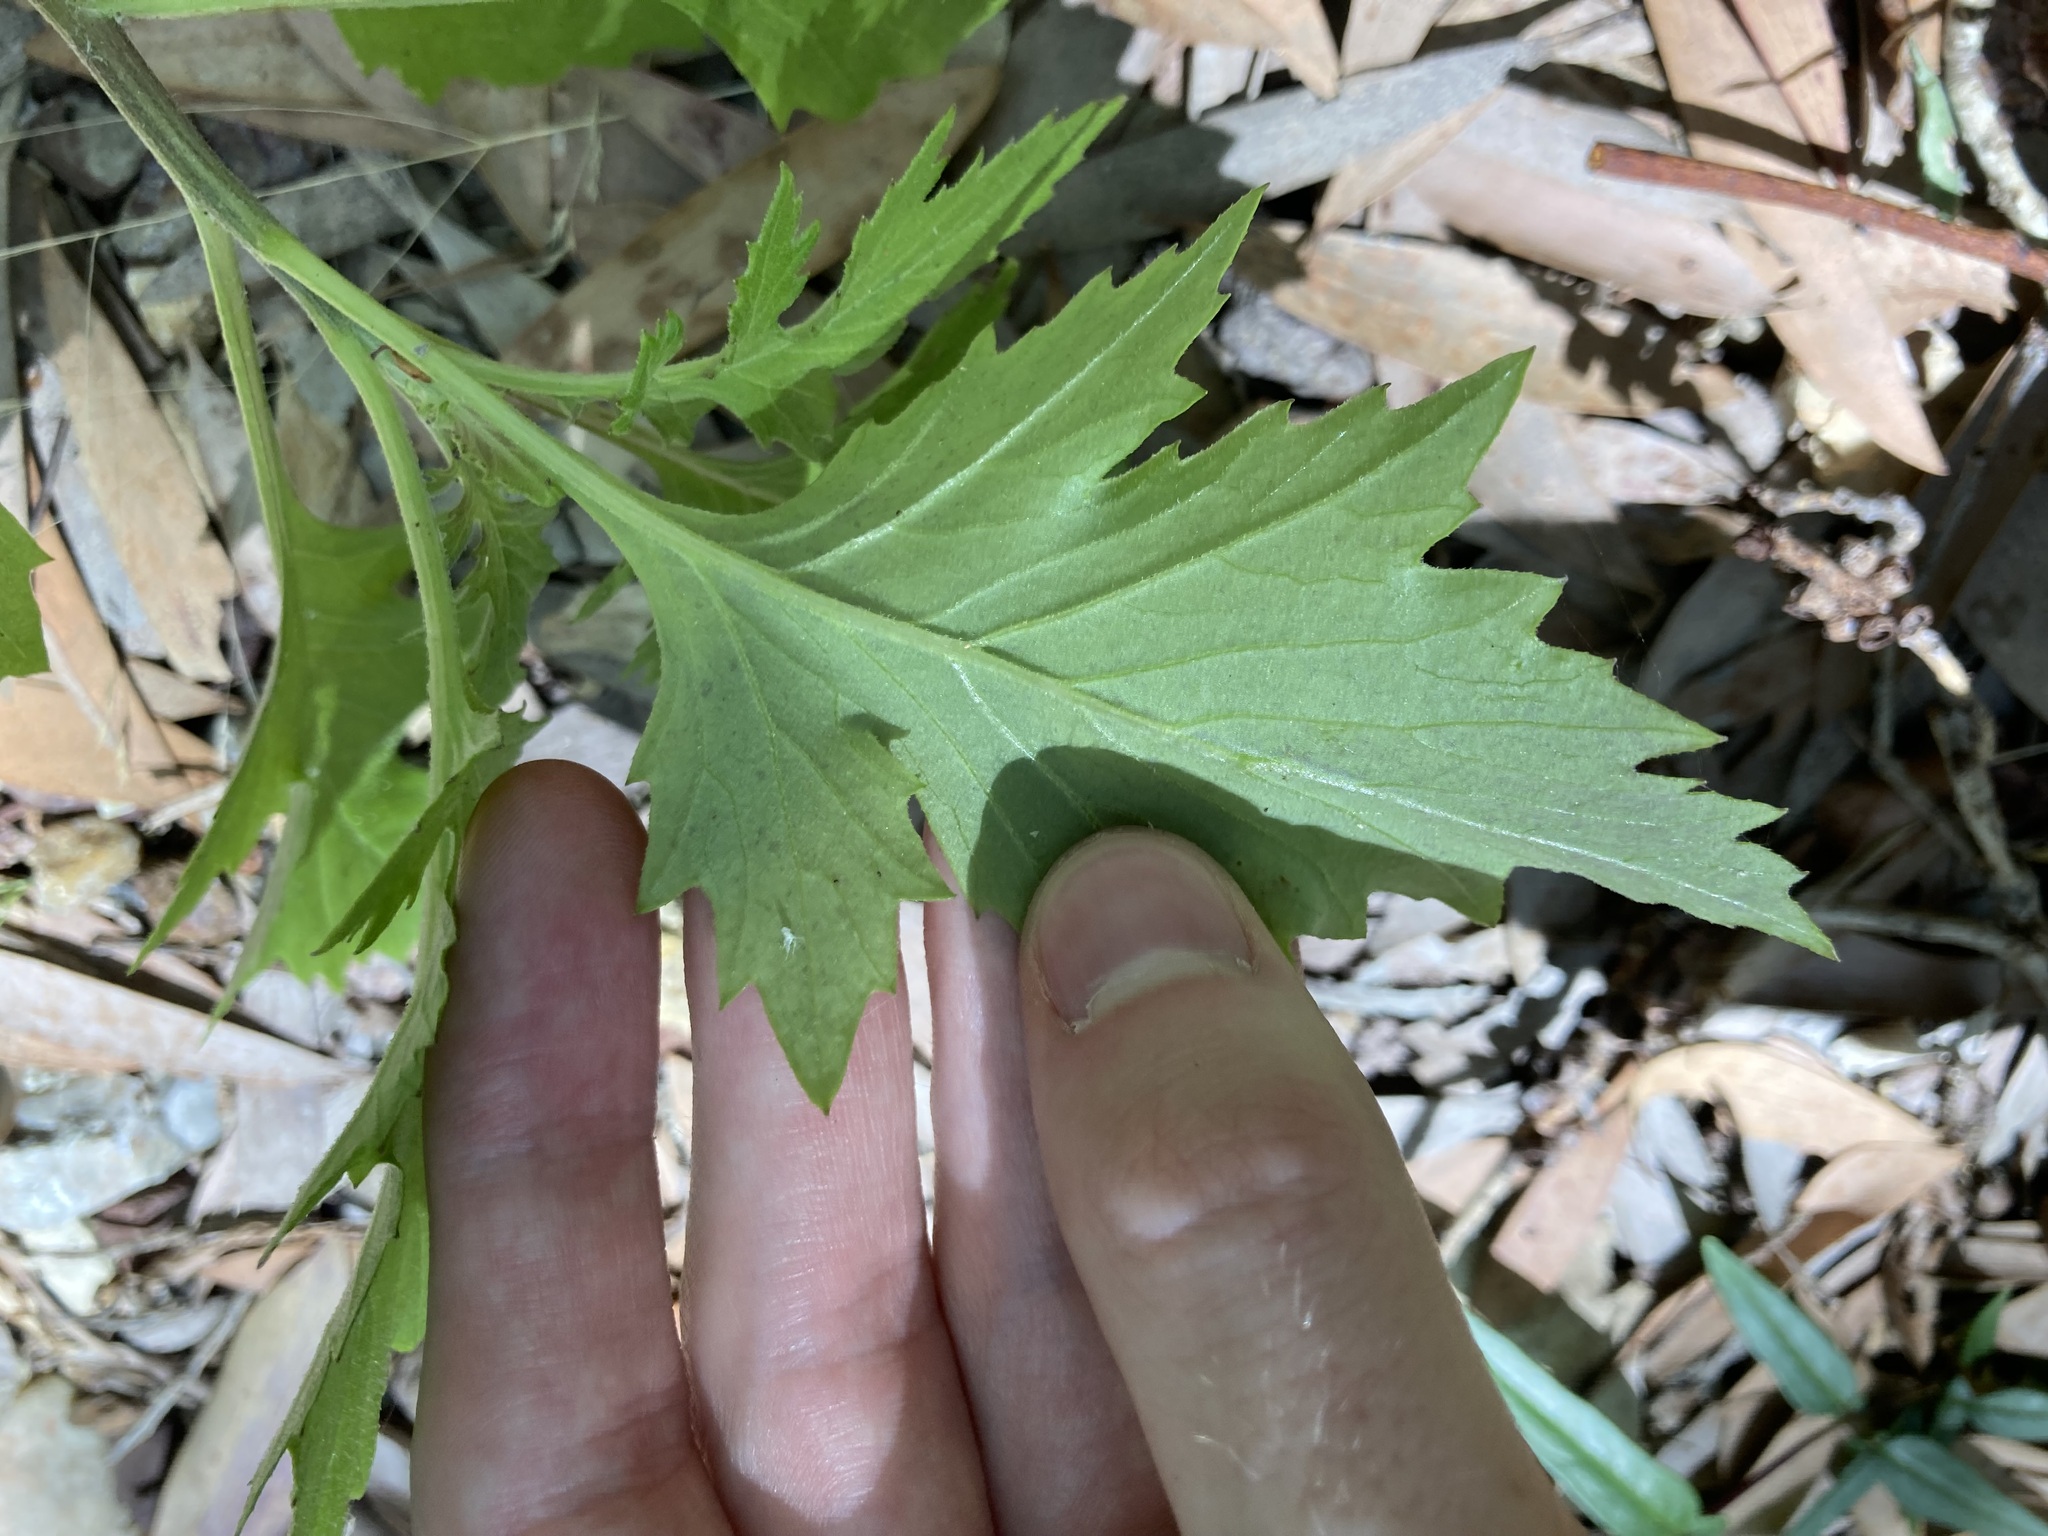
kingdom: Plantae
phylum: Tracheophyta
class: Magnoliopsida
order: Asterales
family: Asteraceae
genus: Erechtites
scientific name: Erechtites valerianifolius
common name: Tropical burnweed
